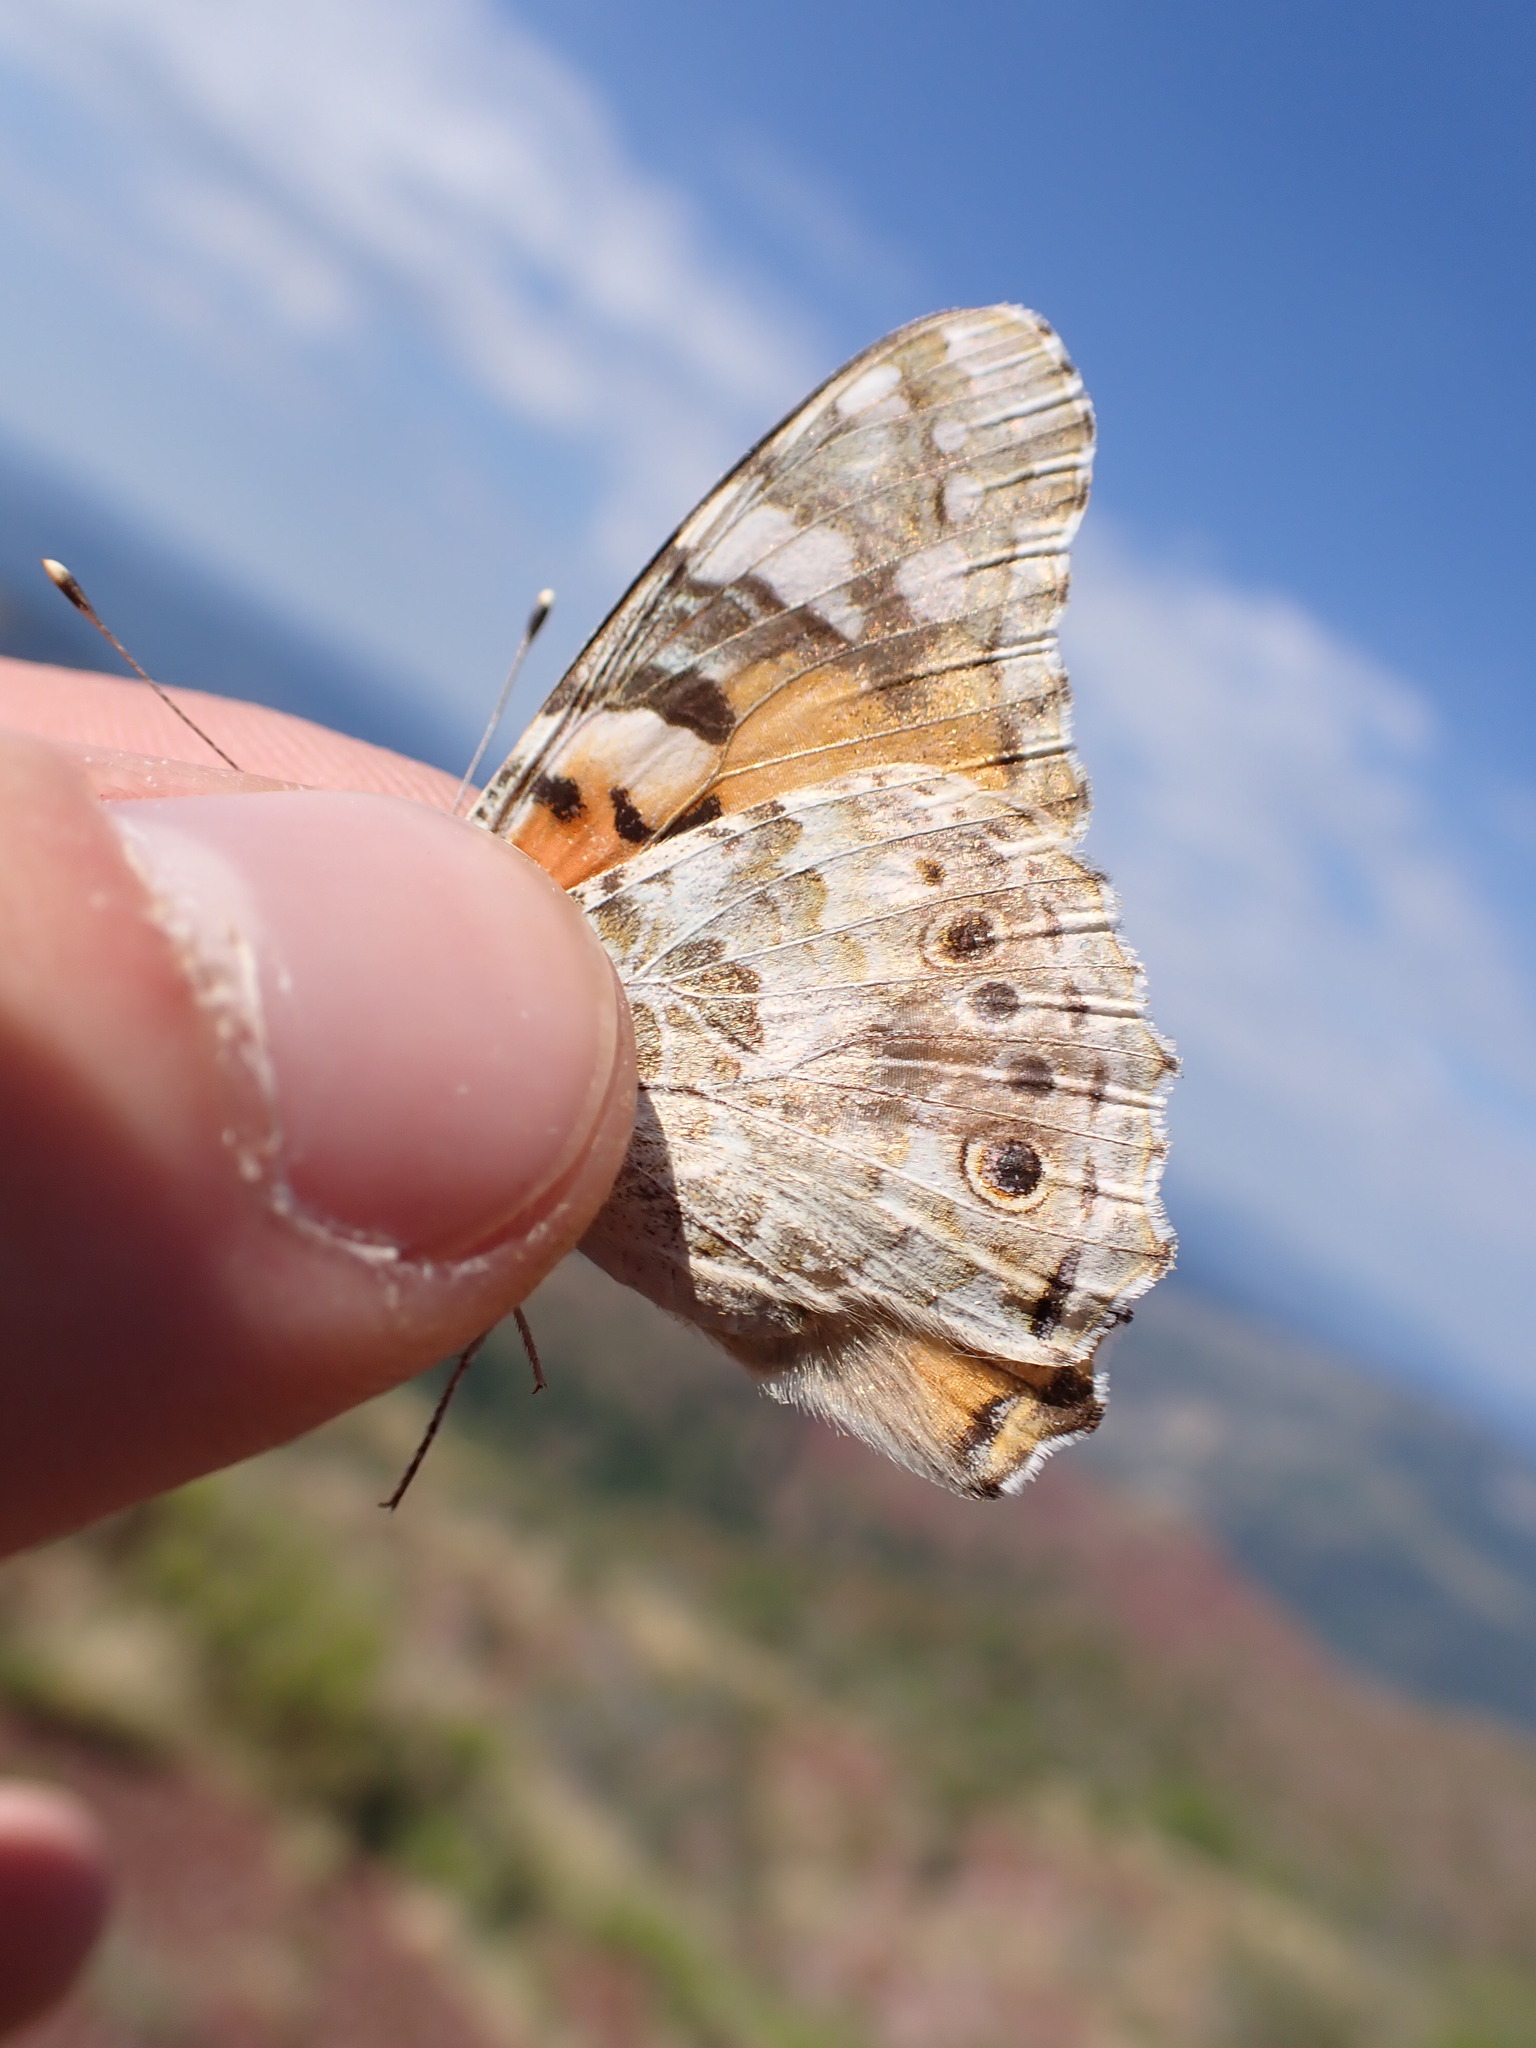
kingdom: Animalia
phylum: Arthropoda
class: Insecta
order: Lepidoptera
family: Nymphalidae
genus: Vanessa
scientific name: Vanessa cardui
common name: Painted lady
